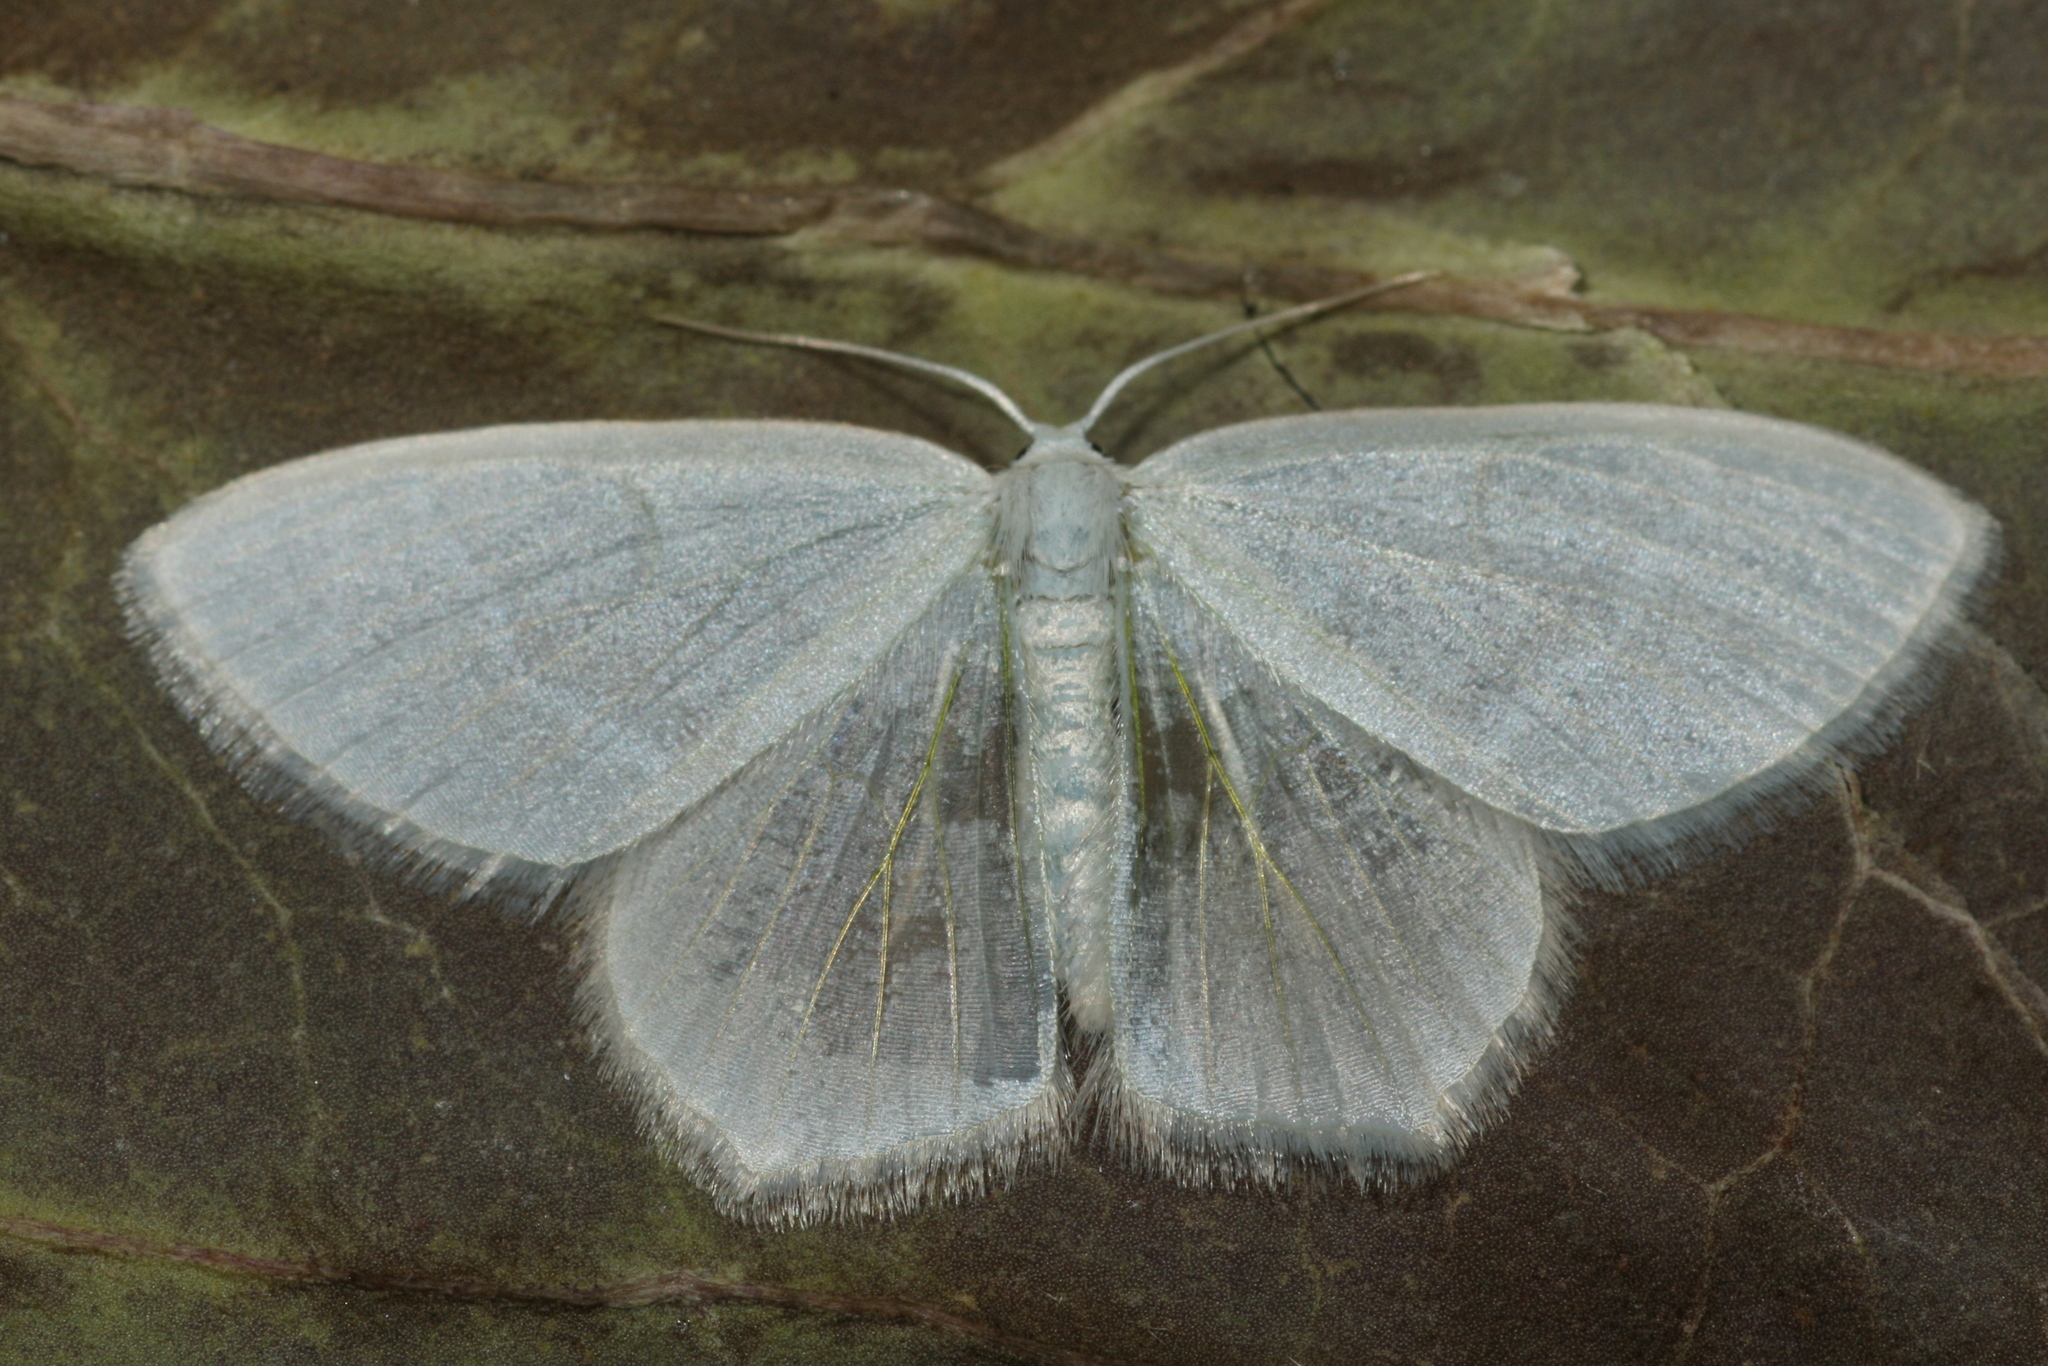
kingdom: Animalia
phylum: Arthropoda
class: Insecta
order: Lepidoptera
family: Geometridae
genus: Jodis
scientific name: Jodis lactearia
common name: Little emerald
